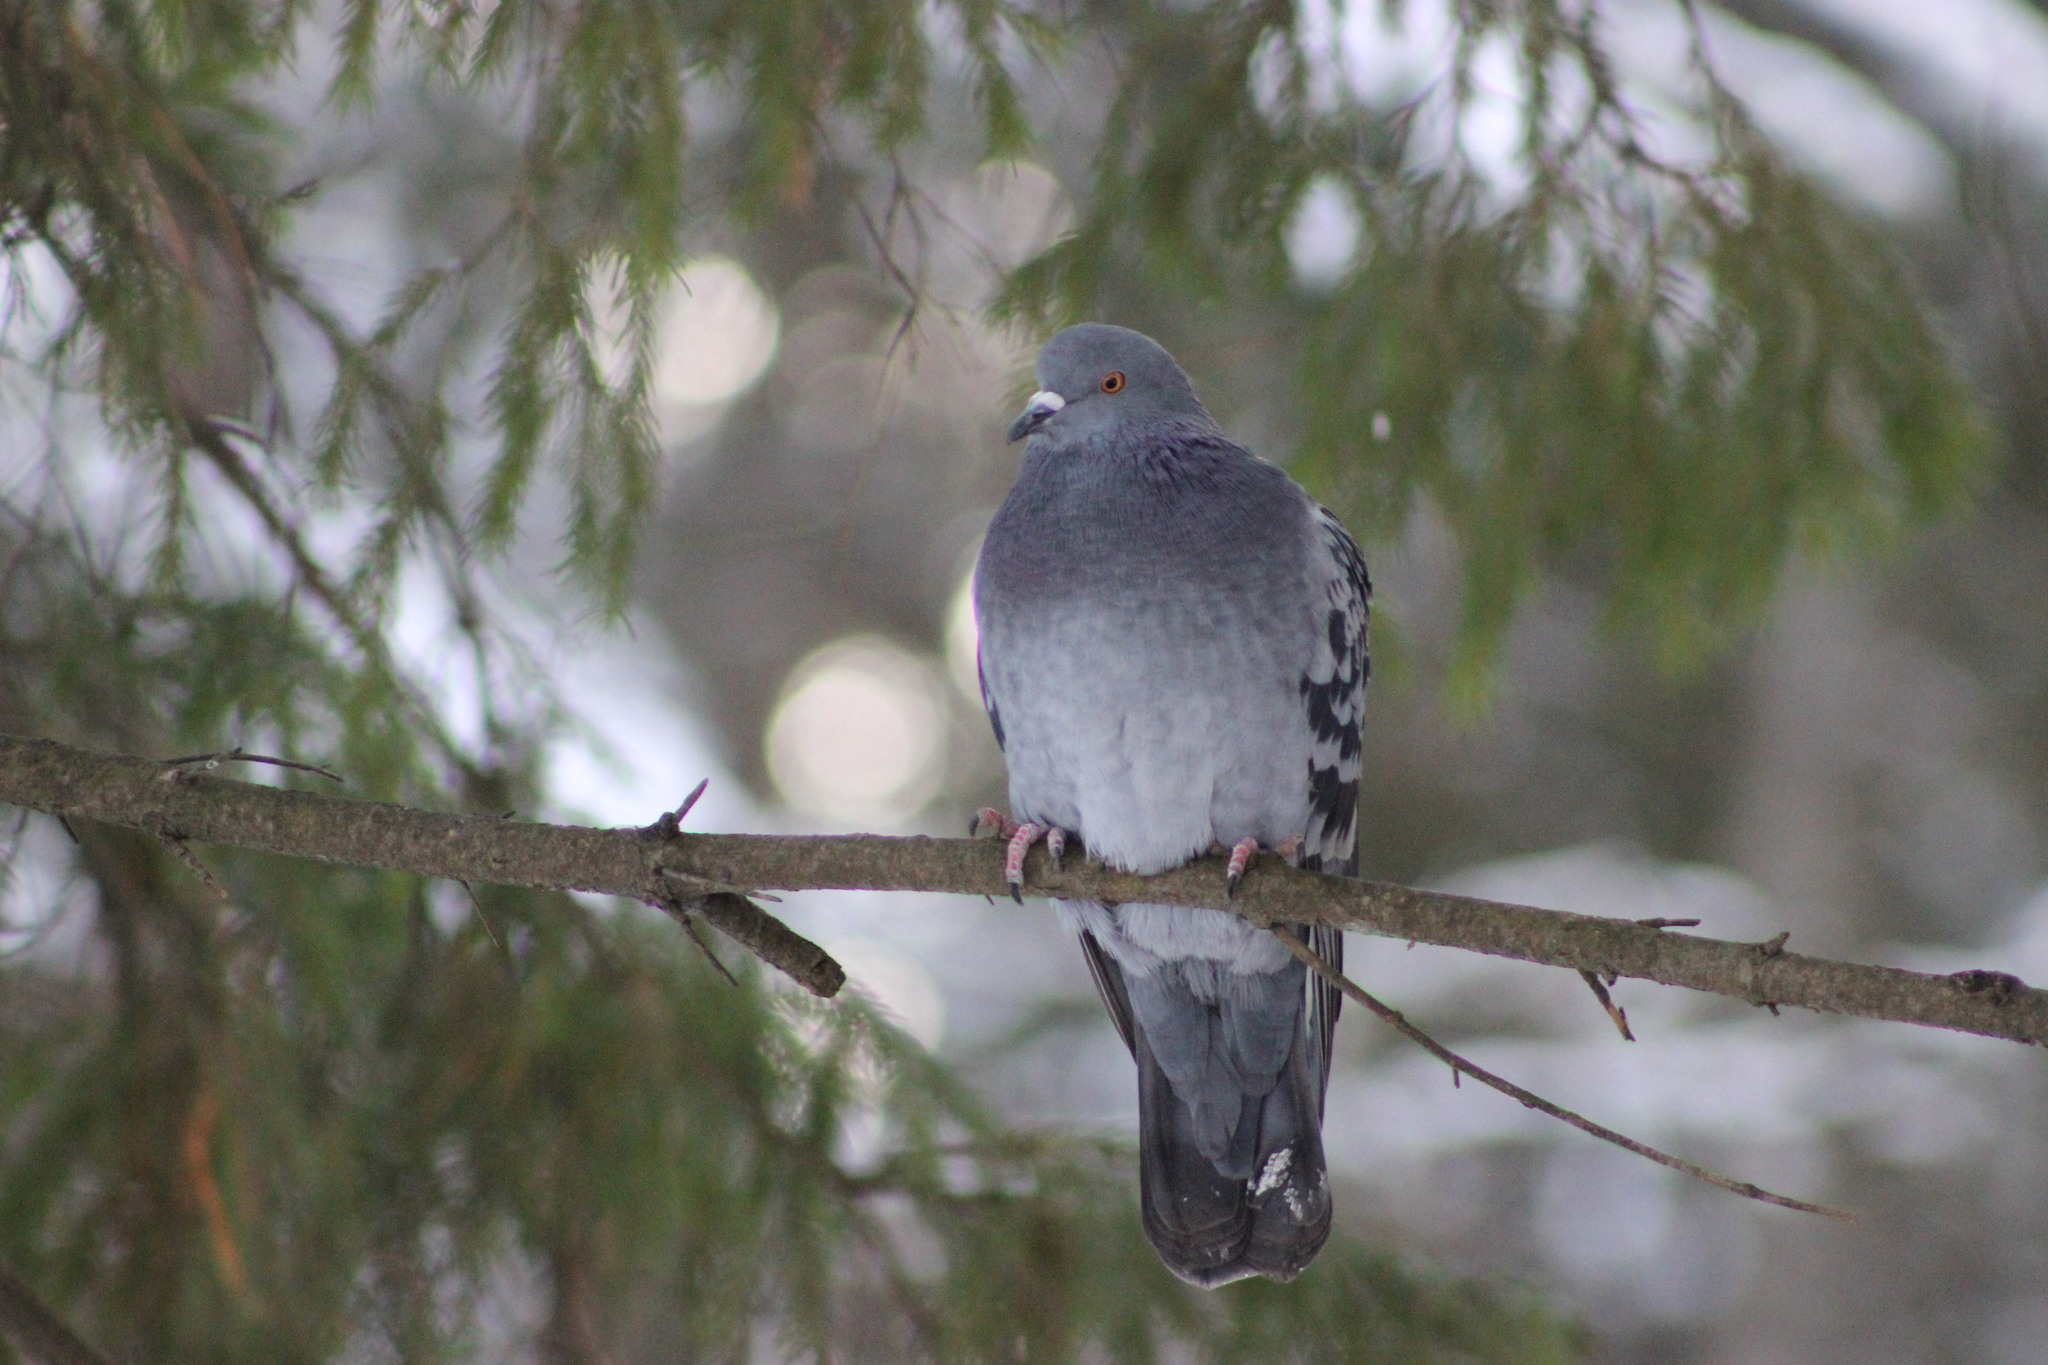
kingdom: Animalia
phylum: Chordata
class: Aves
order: Columbiformes
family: Columbidae
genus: Columba
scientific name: Columba livia
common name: Rock pigeon
